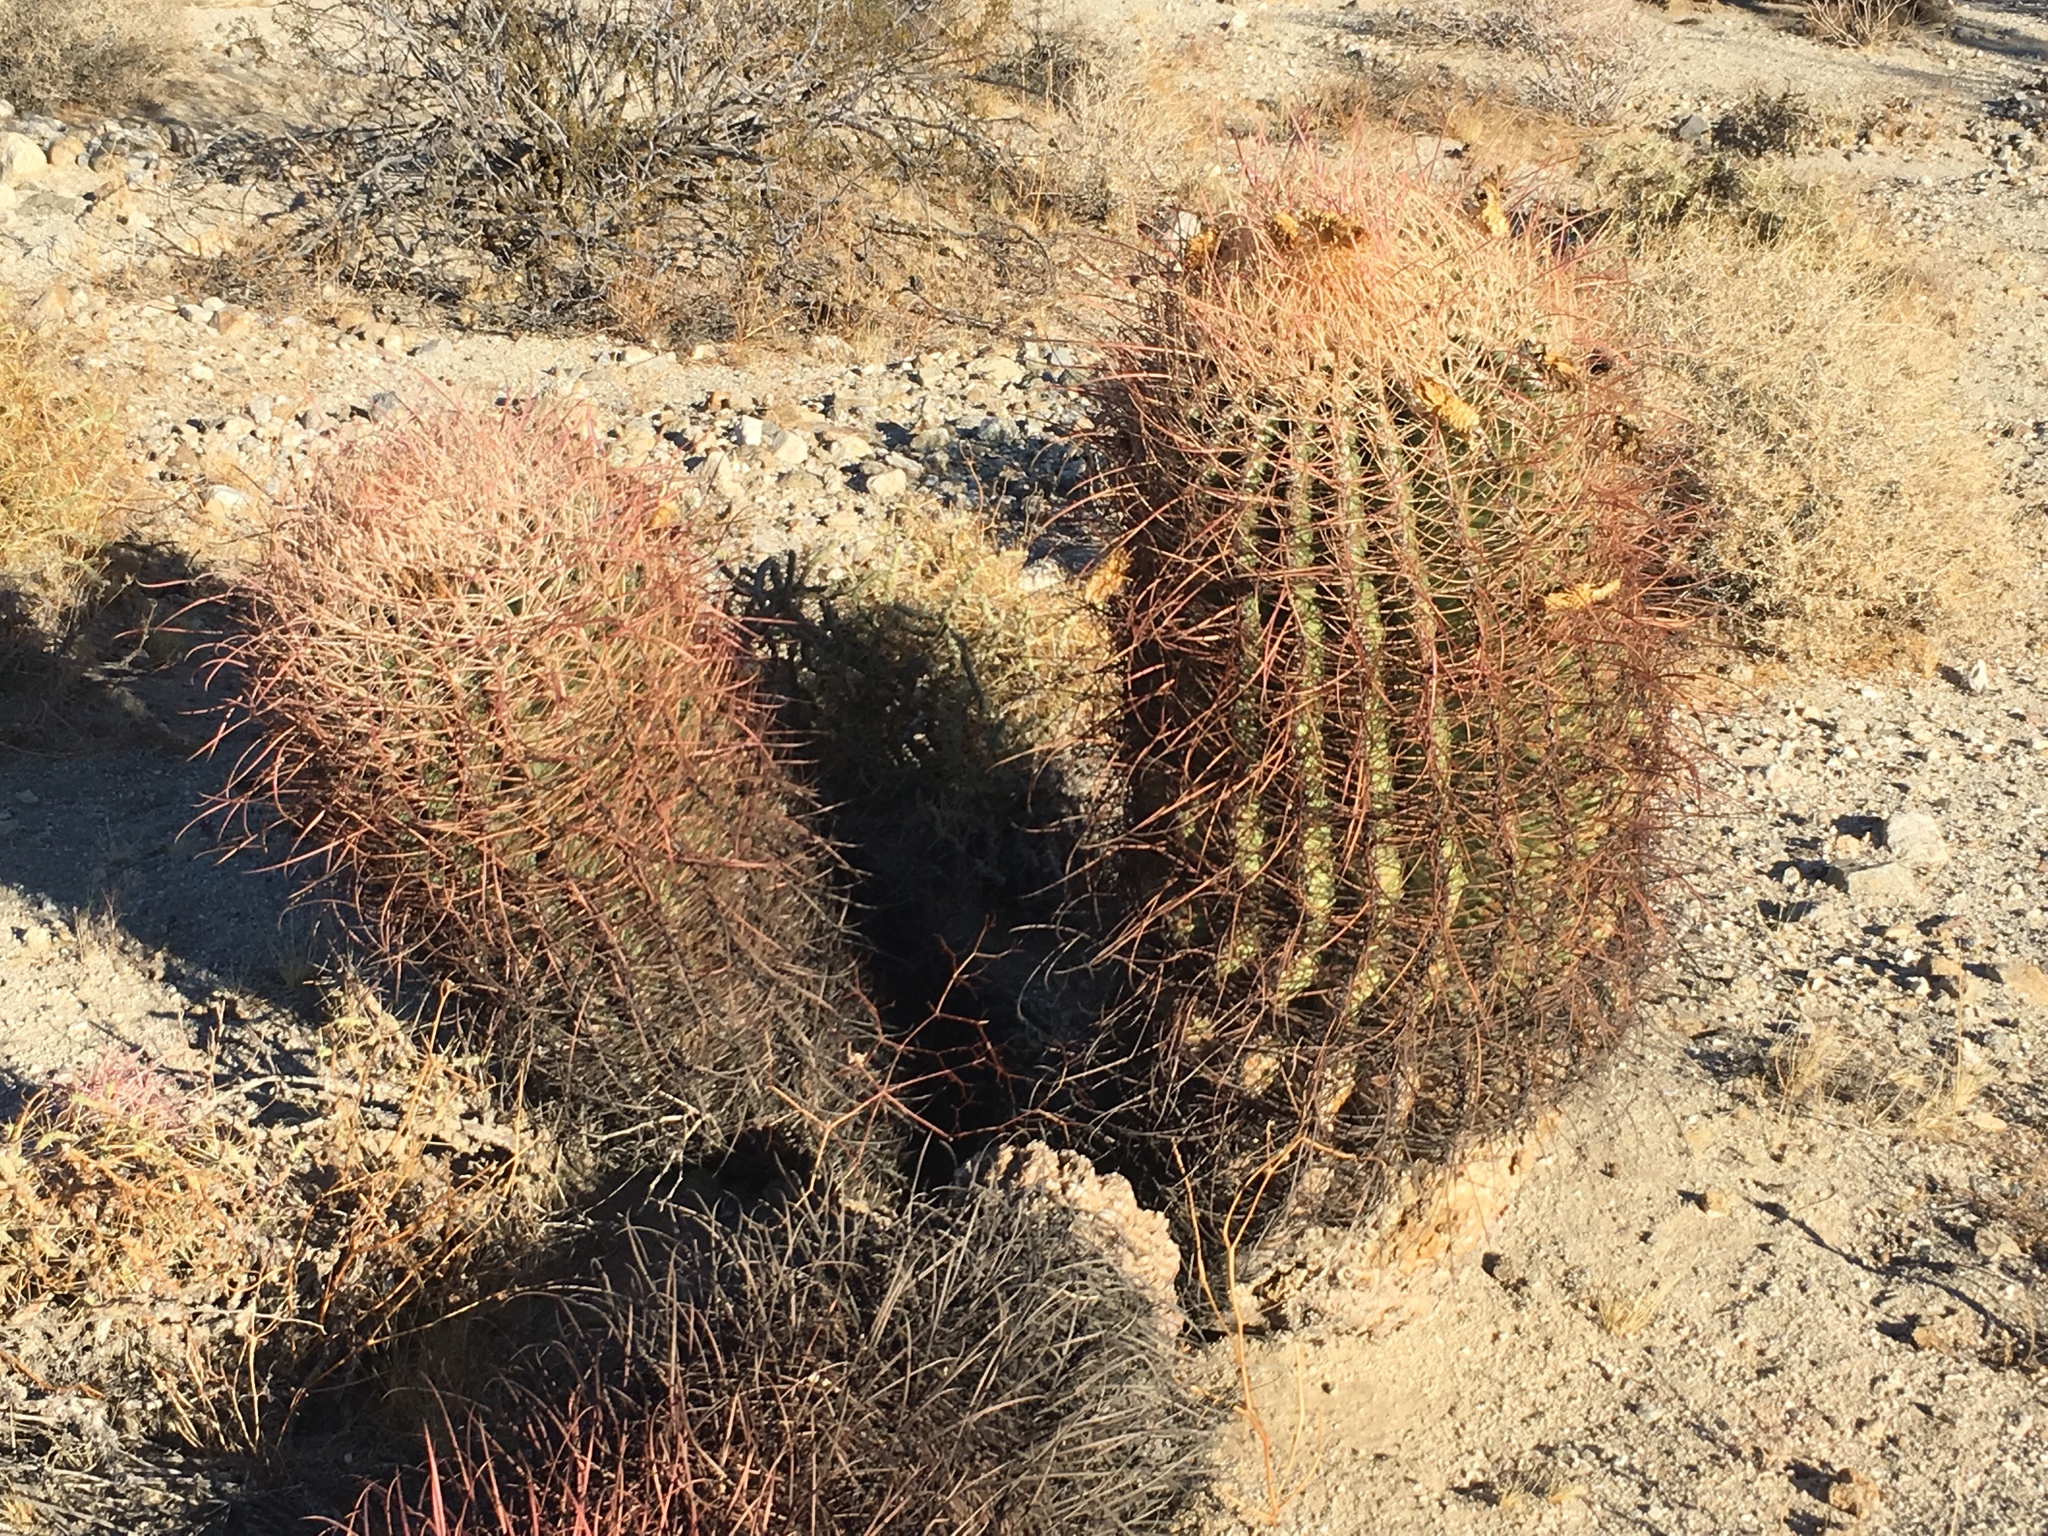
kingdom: Plantae
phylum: Tracheophyta
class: Magnoliopsida
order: Caryophyllales
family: Cactaceae
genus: Ferocactus
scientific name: Ferocactus cylindraceus
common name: California barrel cactus
